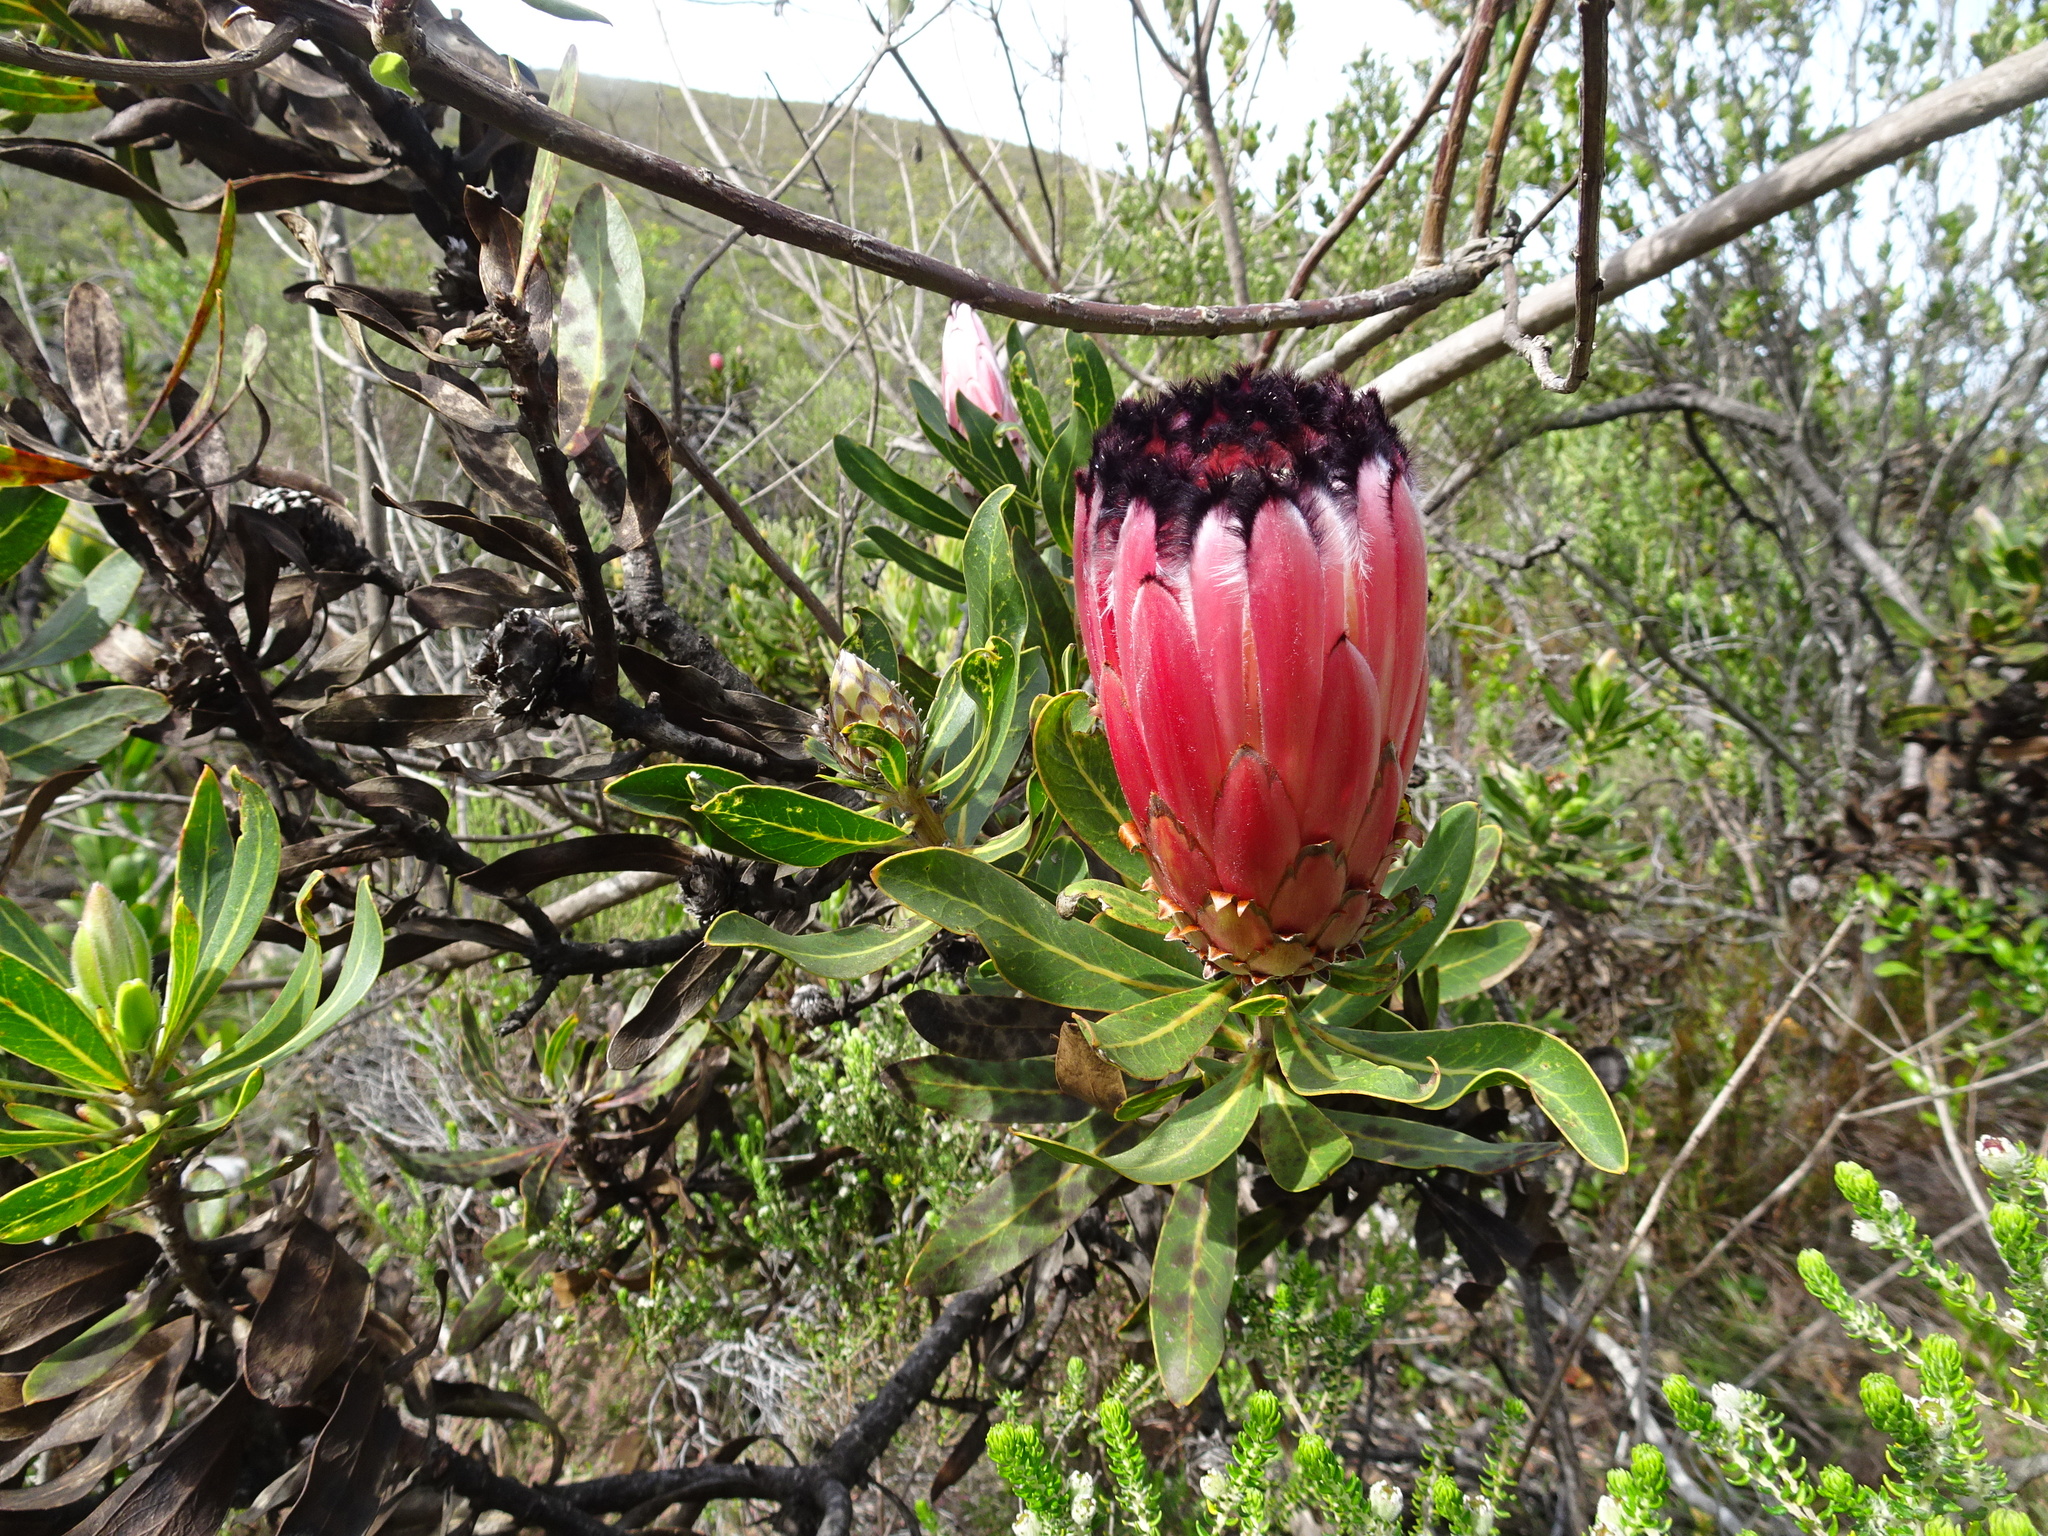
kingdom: Plantae
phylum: Tracheophyta
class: Magnoliopsida
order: Proteales
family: Proteaceae
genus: Protea
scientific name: Protea neriifolia
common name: Blue sugarbush
